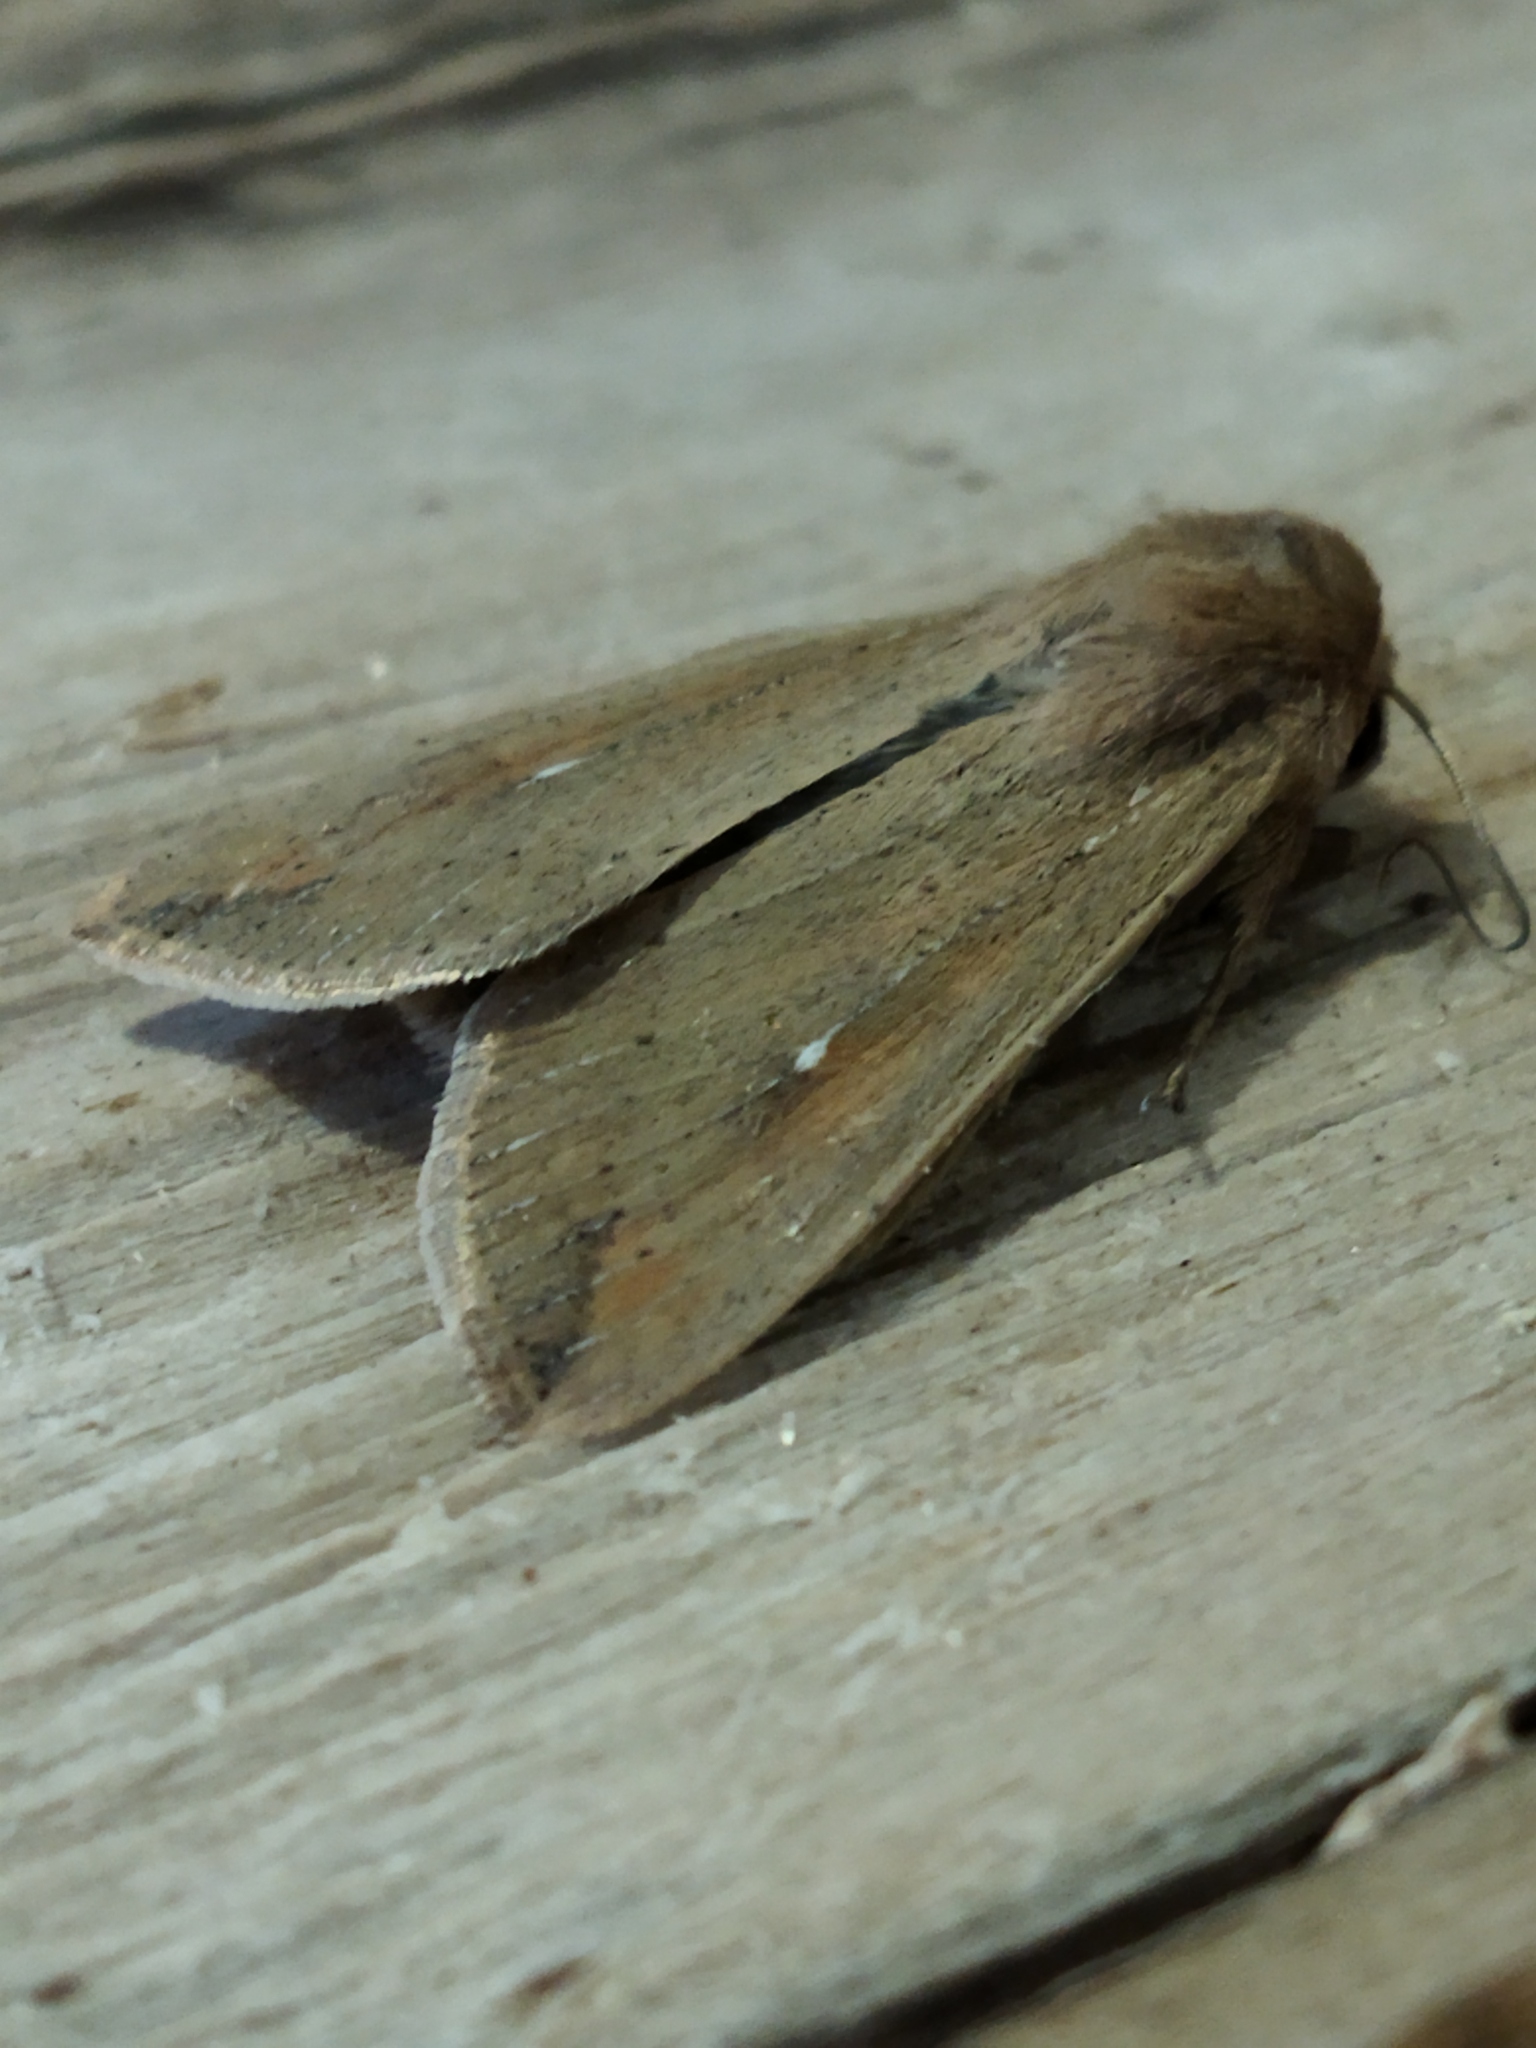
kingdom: Animalia
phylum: Arthropoda
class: Insecta
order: Lepidoptera
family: Noctuidae
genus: Mythimna
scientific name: Mythimna unipuncta
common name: White-speck
